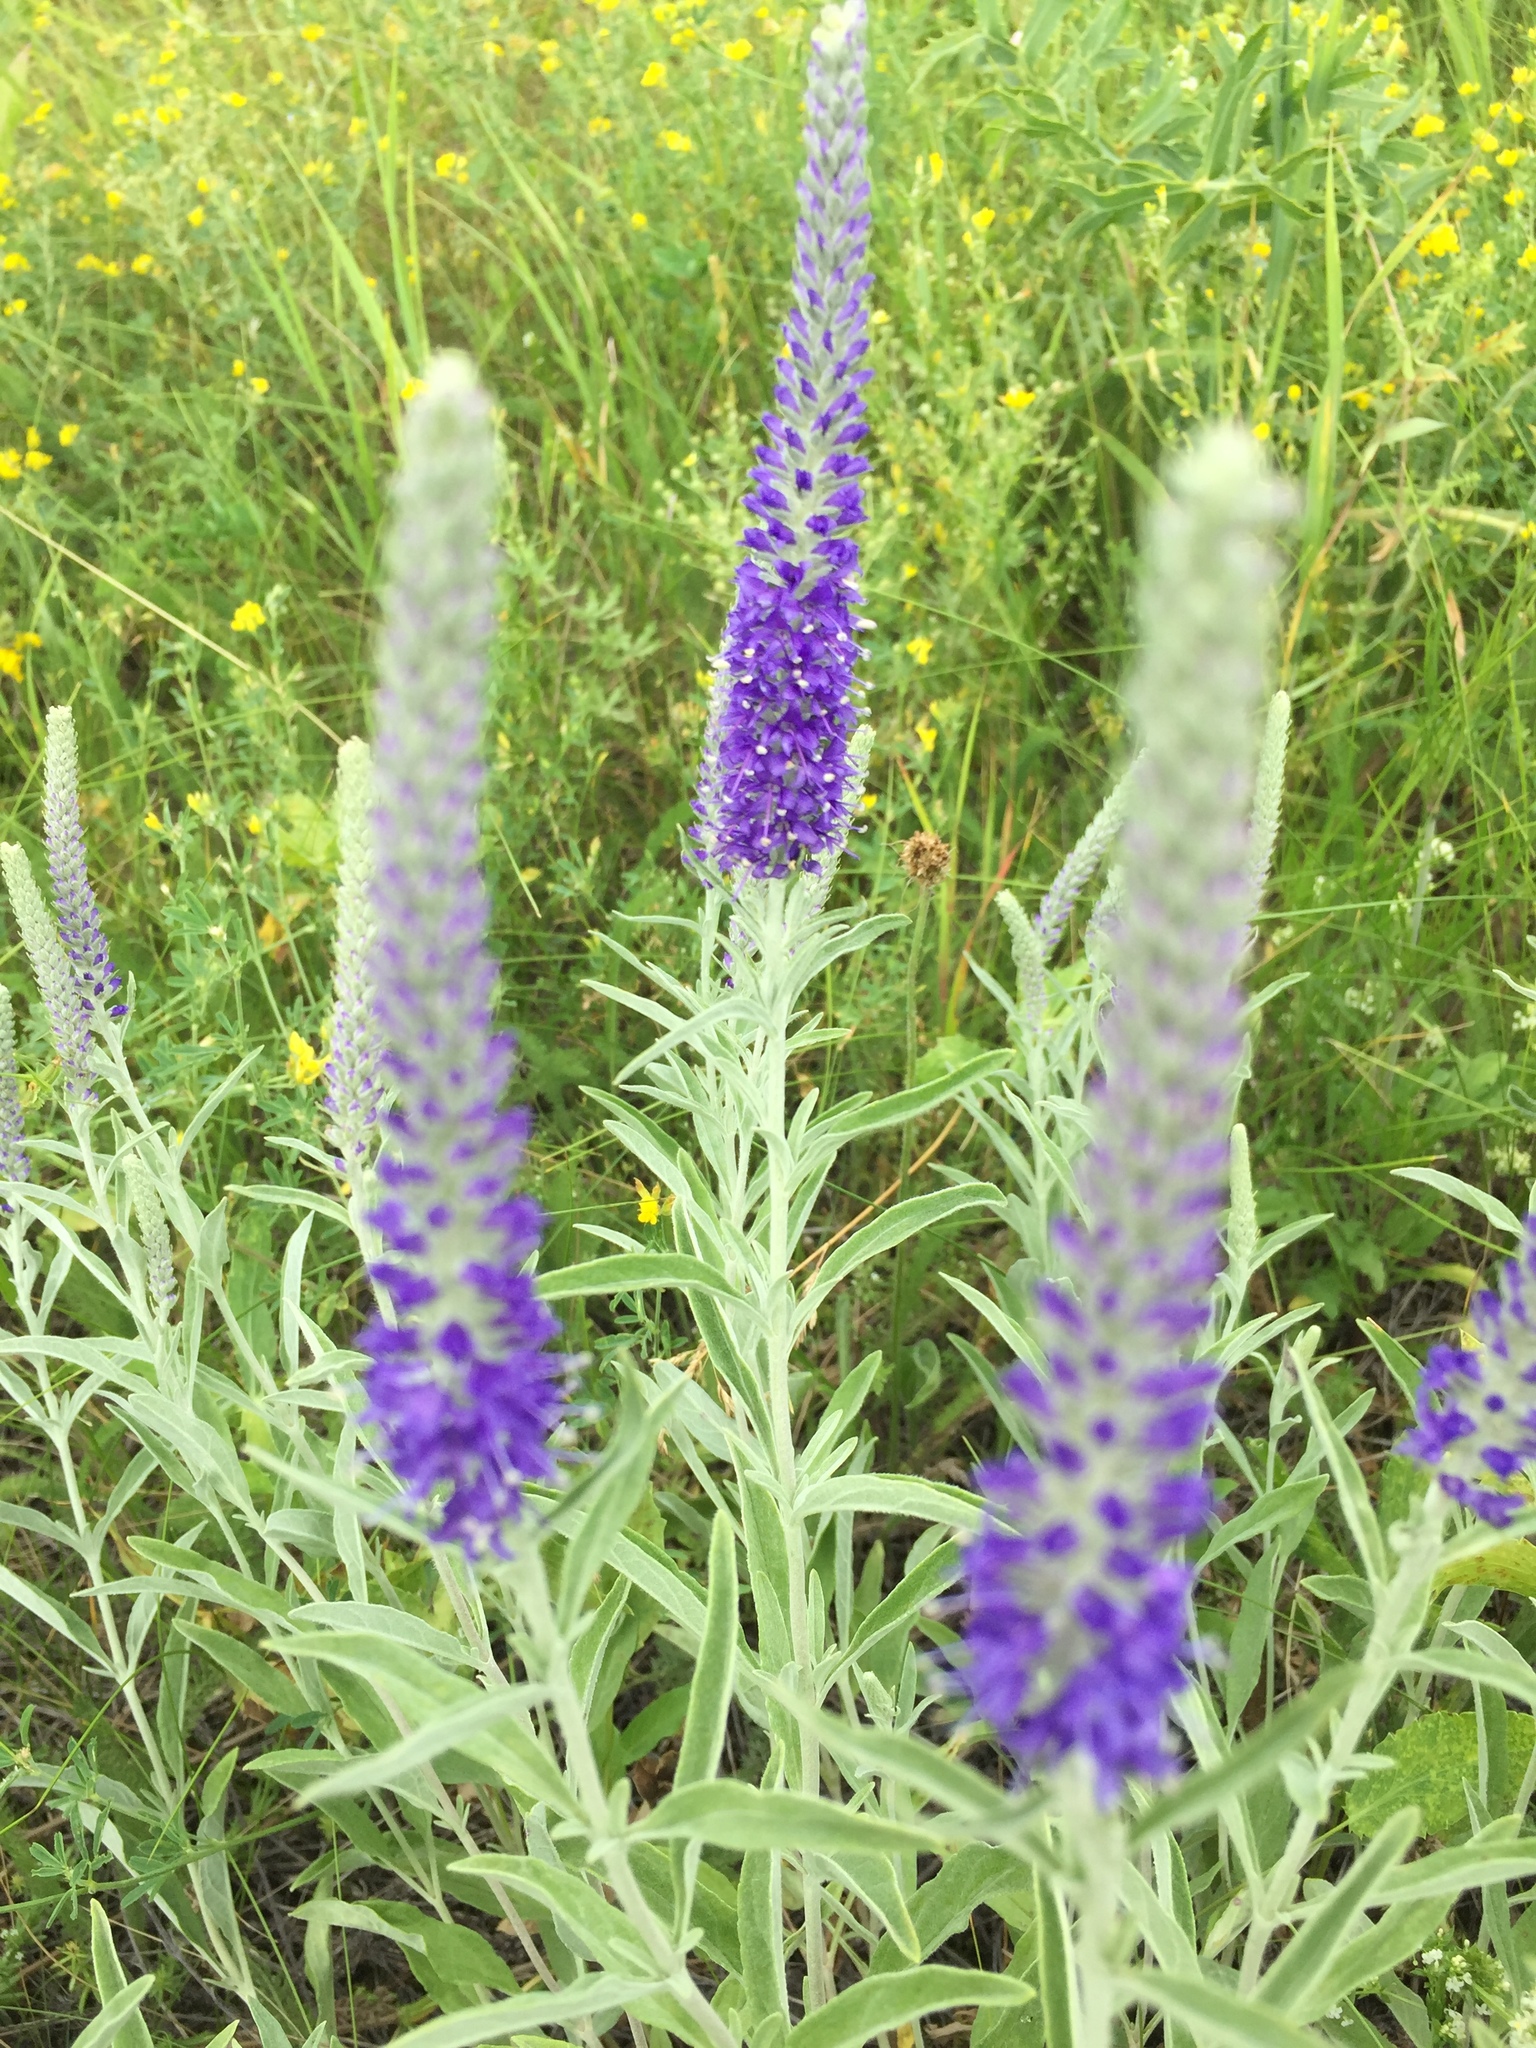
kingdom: Plantae
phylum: Tracheophyta
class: Magnoliopsida
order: Lamiales
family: Plantaginaceae
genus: Veronica
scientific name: Veronica incana
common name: Silver speedwell
